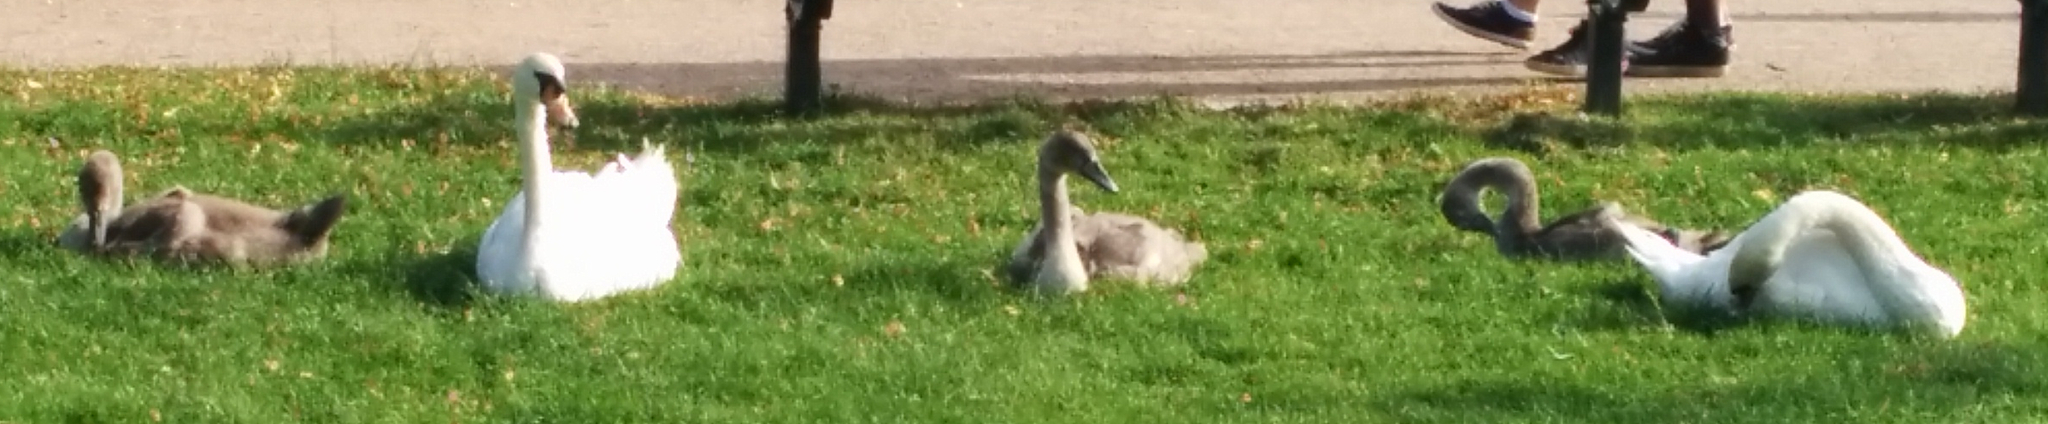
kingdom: Animalia
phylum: Chordata
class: Aves
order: Anseriformes
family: Anatidae
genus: Cygnus
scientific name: Cygnus olor
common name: Mute swan
